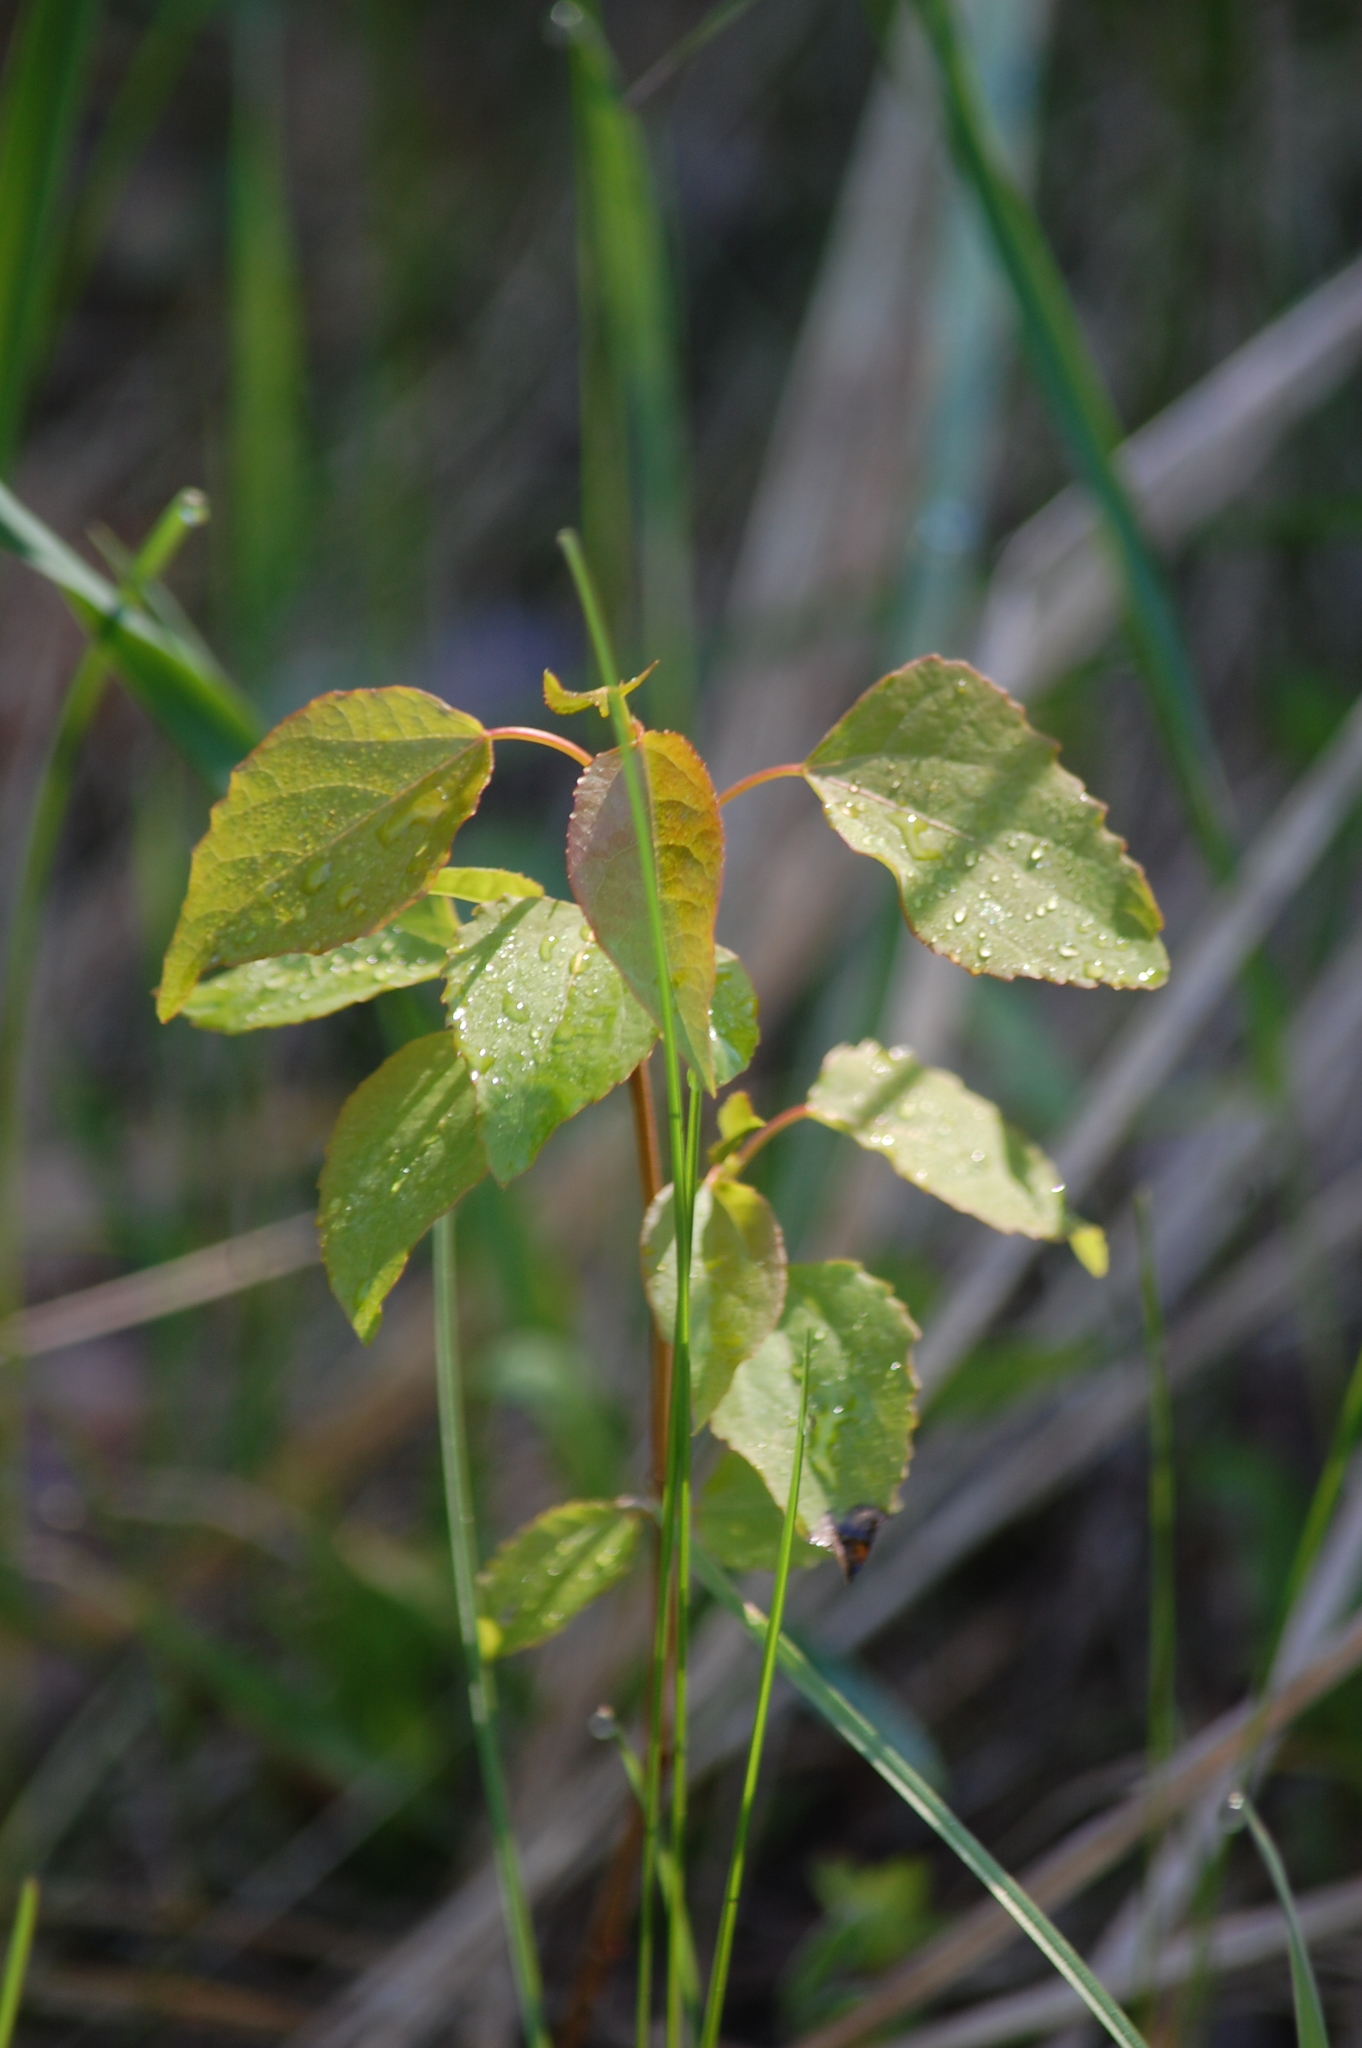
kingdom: Plantae
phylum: Tracheophyta
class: Magnoliopsida
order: Malpighiales
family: Salicaceae
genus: Populus
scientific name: Populus tremula
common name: European aspen
